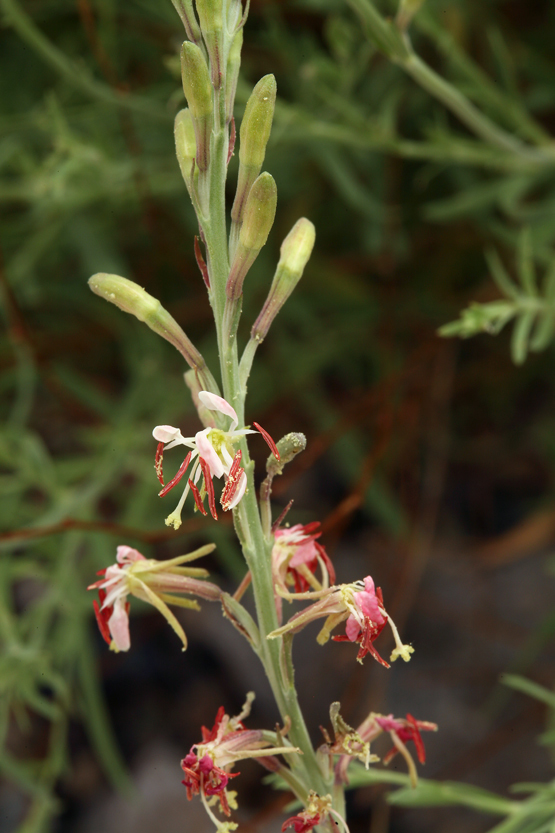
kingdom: Plantae
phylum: Tracheophyta
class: Magnoliopsida
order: Myrtales
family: Onagraceae
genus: Oenothera
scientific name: Oenothera suffrutescens
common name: Scarlet beeblossom
